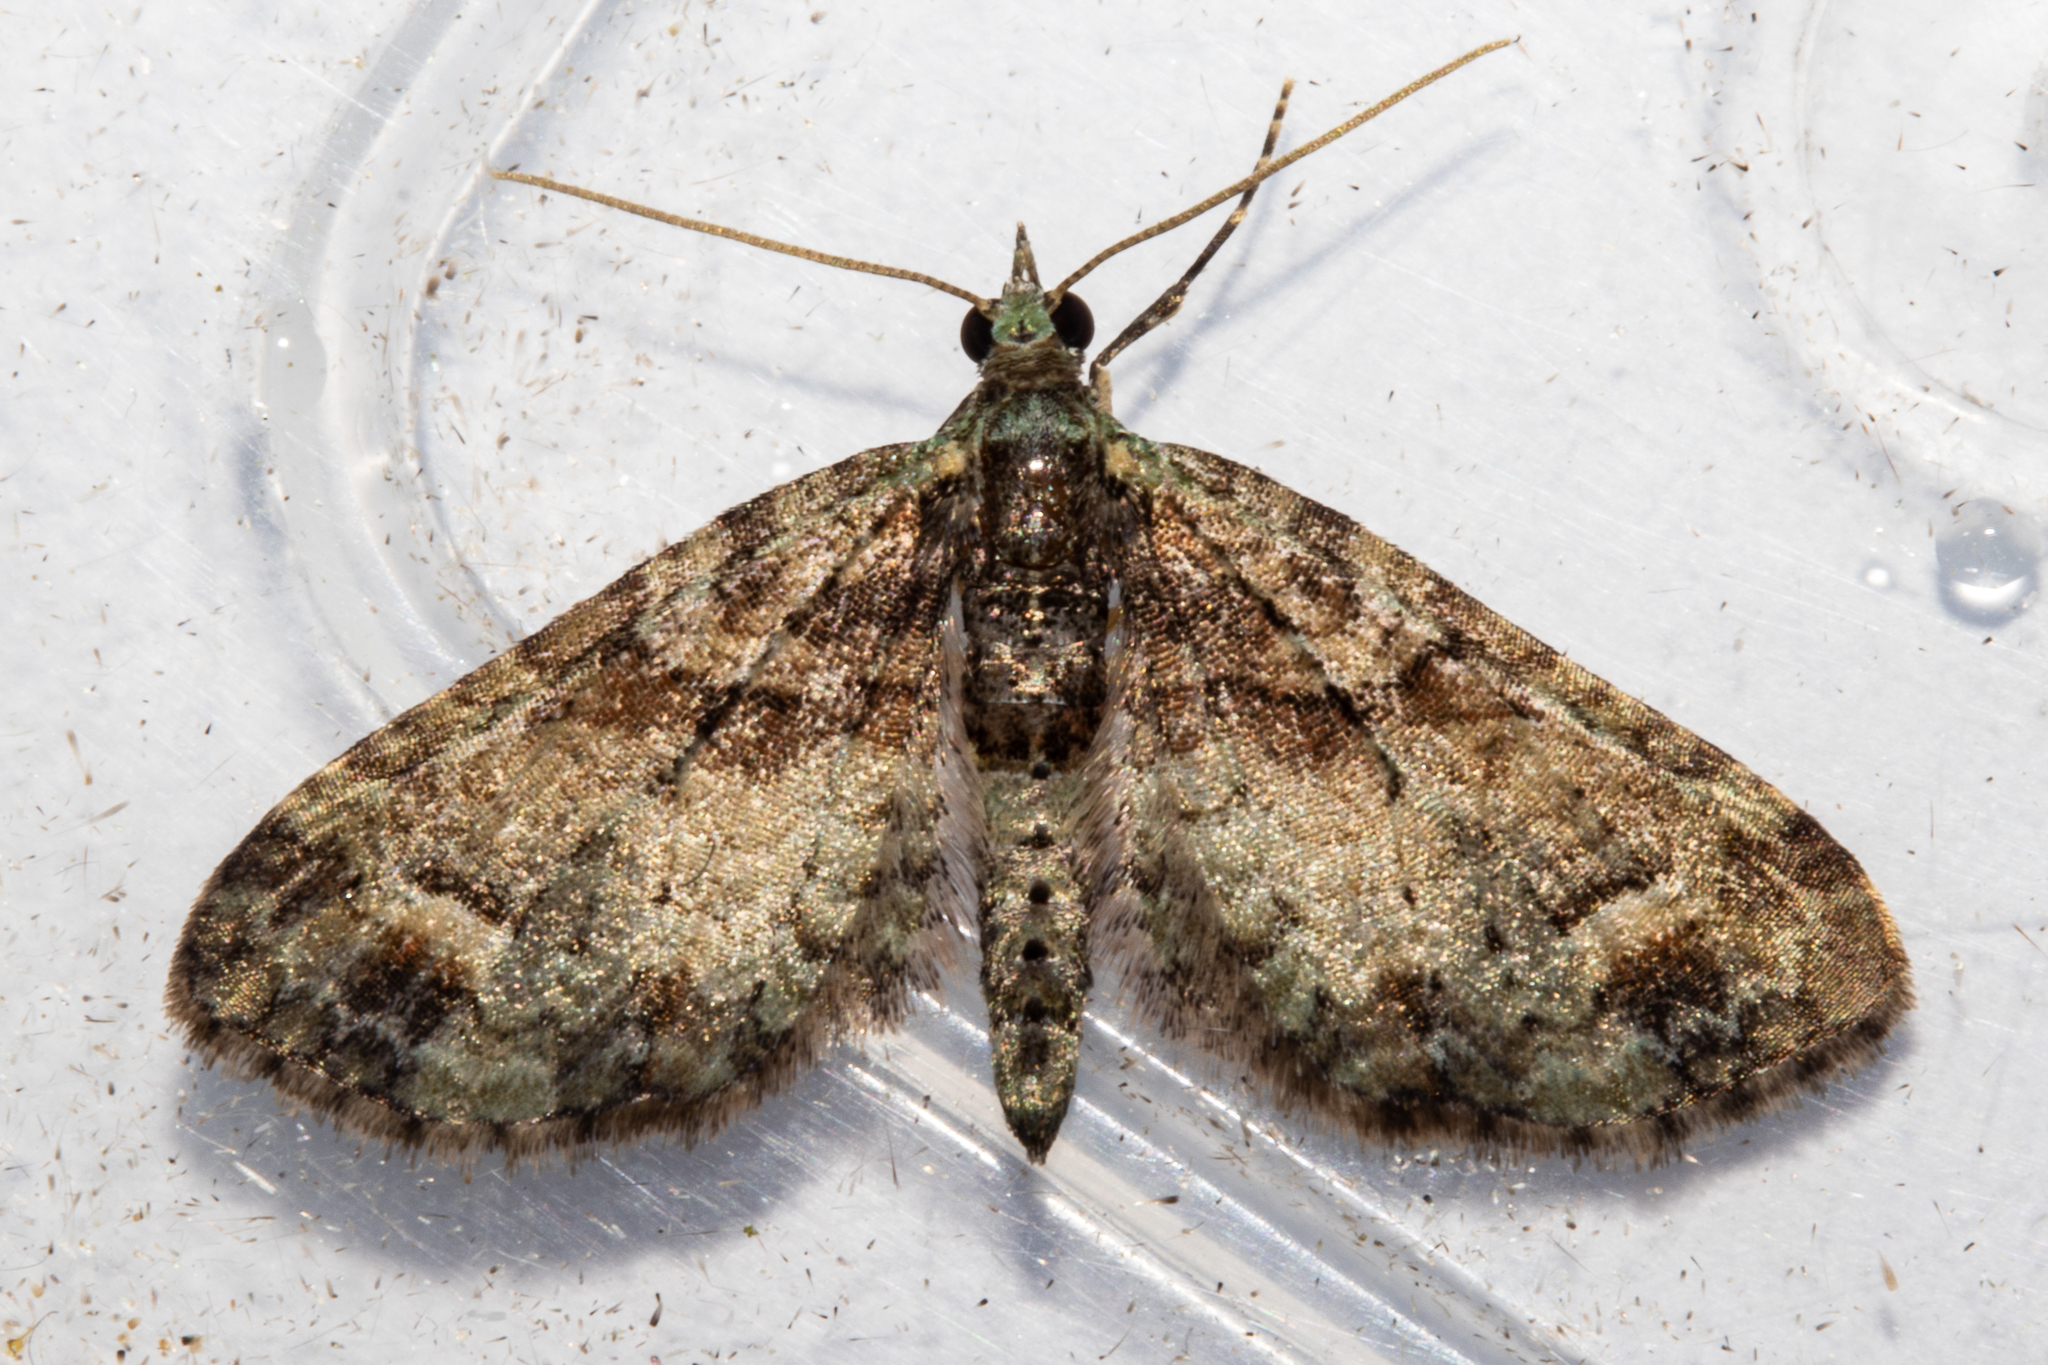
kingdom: Animalia
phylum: Arthropoda
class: Insecta
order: Lepidoptera
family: Geometridae
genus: Idaea
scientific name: Idaea mutanda
